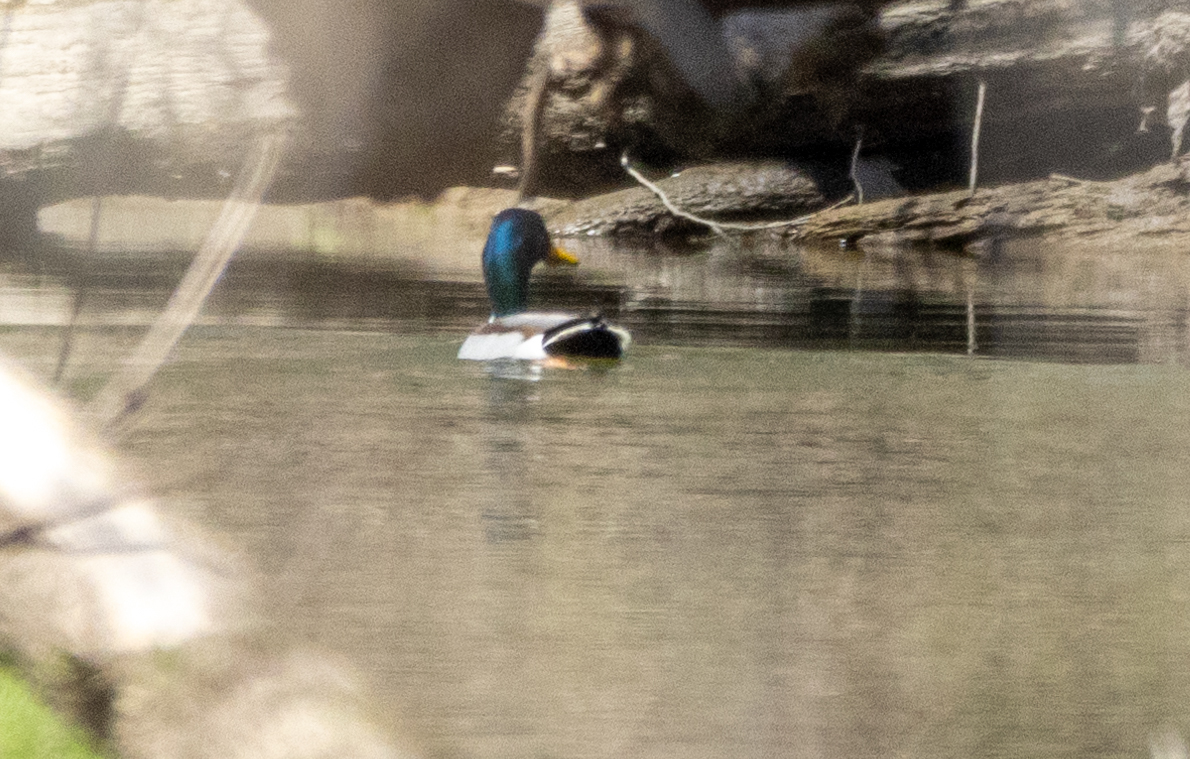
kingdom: Animalia
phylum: Chordata
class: Aves
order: Anseriformes
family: Anatidae
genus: Anas
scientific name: Anas platyrhynchos
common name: Mallard
